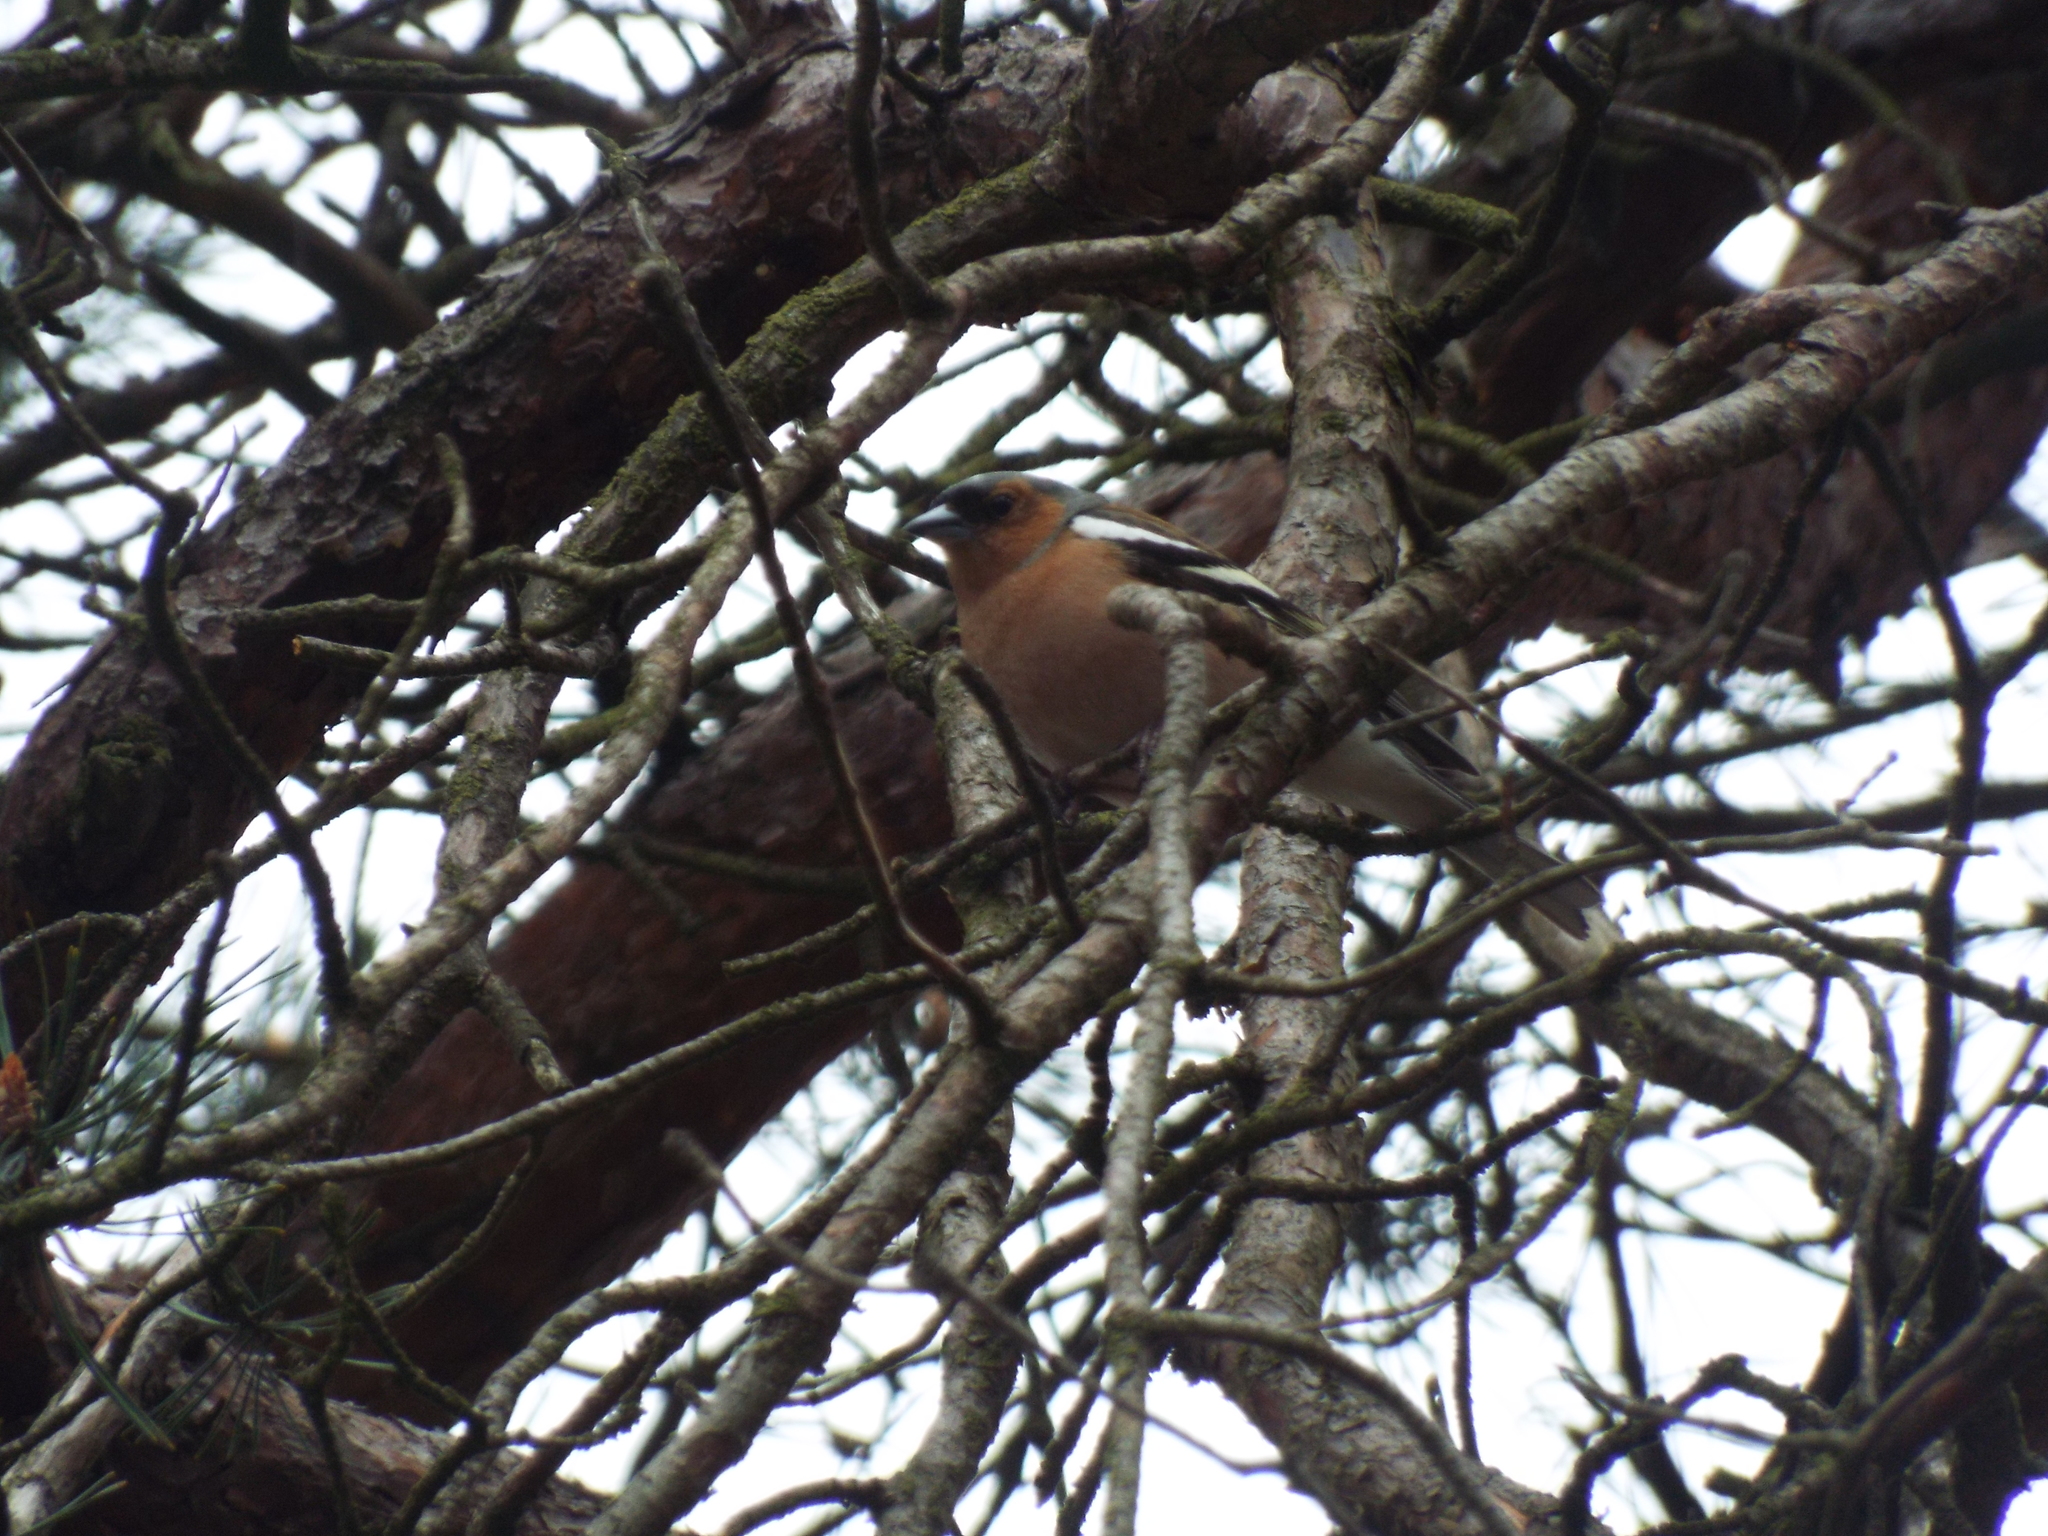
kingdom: Animalia
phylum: Chordata
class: Aves
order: Passeriformes
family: Fringillidae
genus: Fringilla
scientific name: Fringilla coelebs
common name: Common chaffinch
